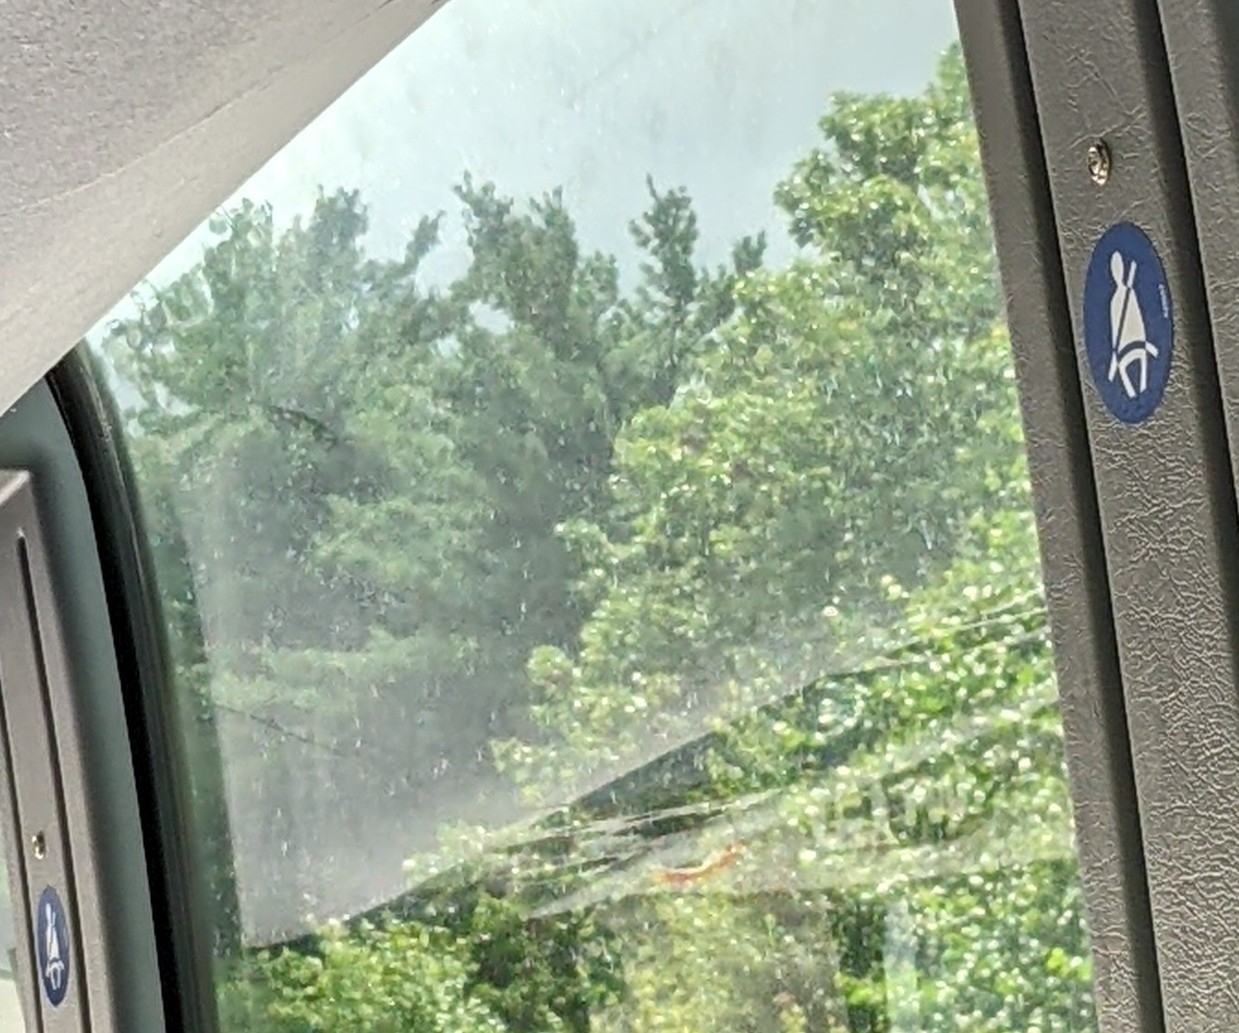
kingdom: Plantae
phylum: Tracheophyta
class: Pinopsida
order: Pinales
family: Pinaceae
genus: Pinus
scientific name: Pinus strobus
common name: Weymouth pine
